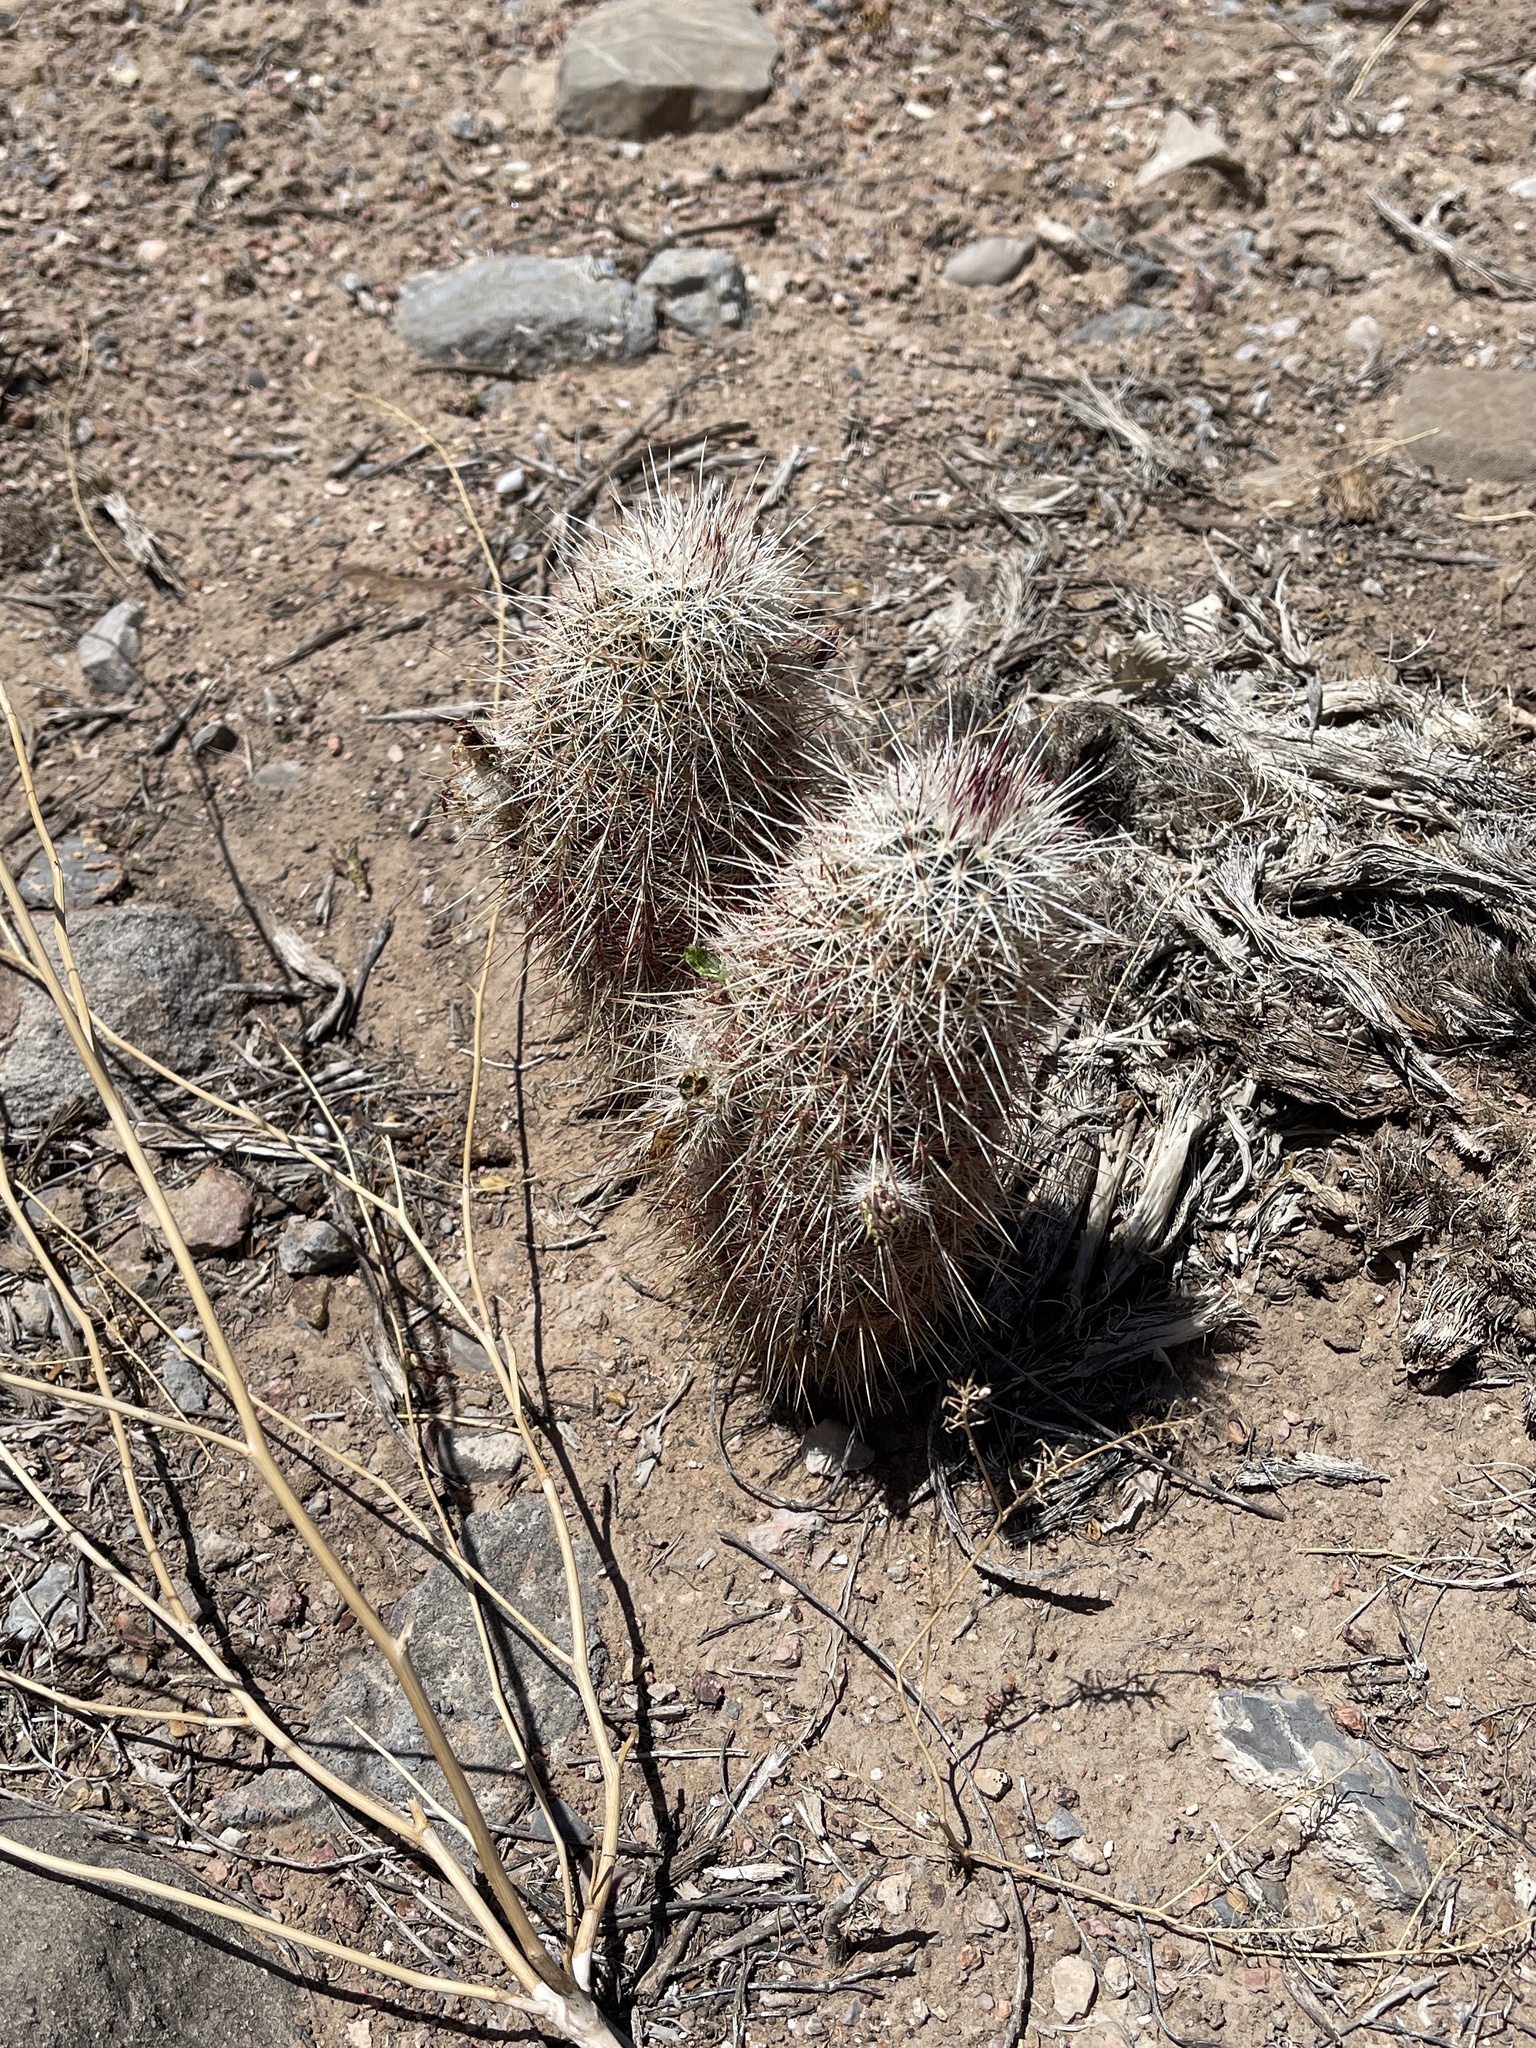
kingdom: Plantae
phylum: Tracheophyta
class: Magnoliopsida
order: Caryophyllales
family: Cactaceae
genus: Echinocereus
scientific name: Echinocereus viridiflorus
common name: Nylon hedgehog cactus
